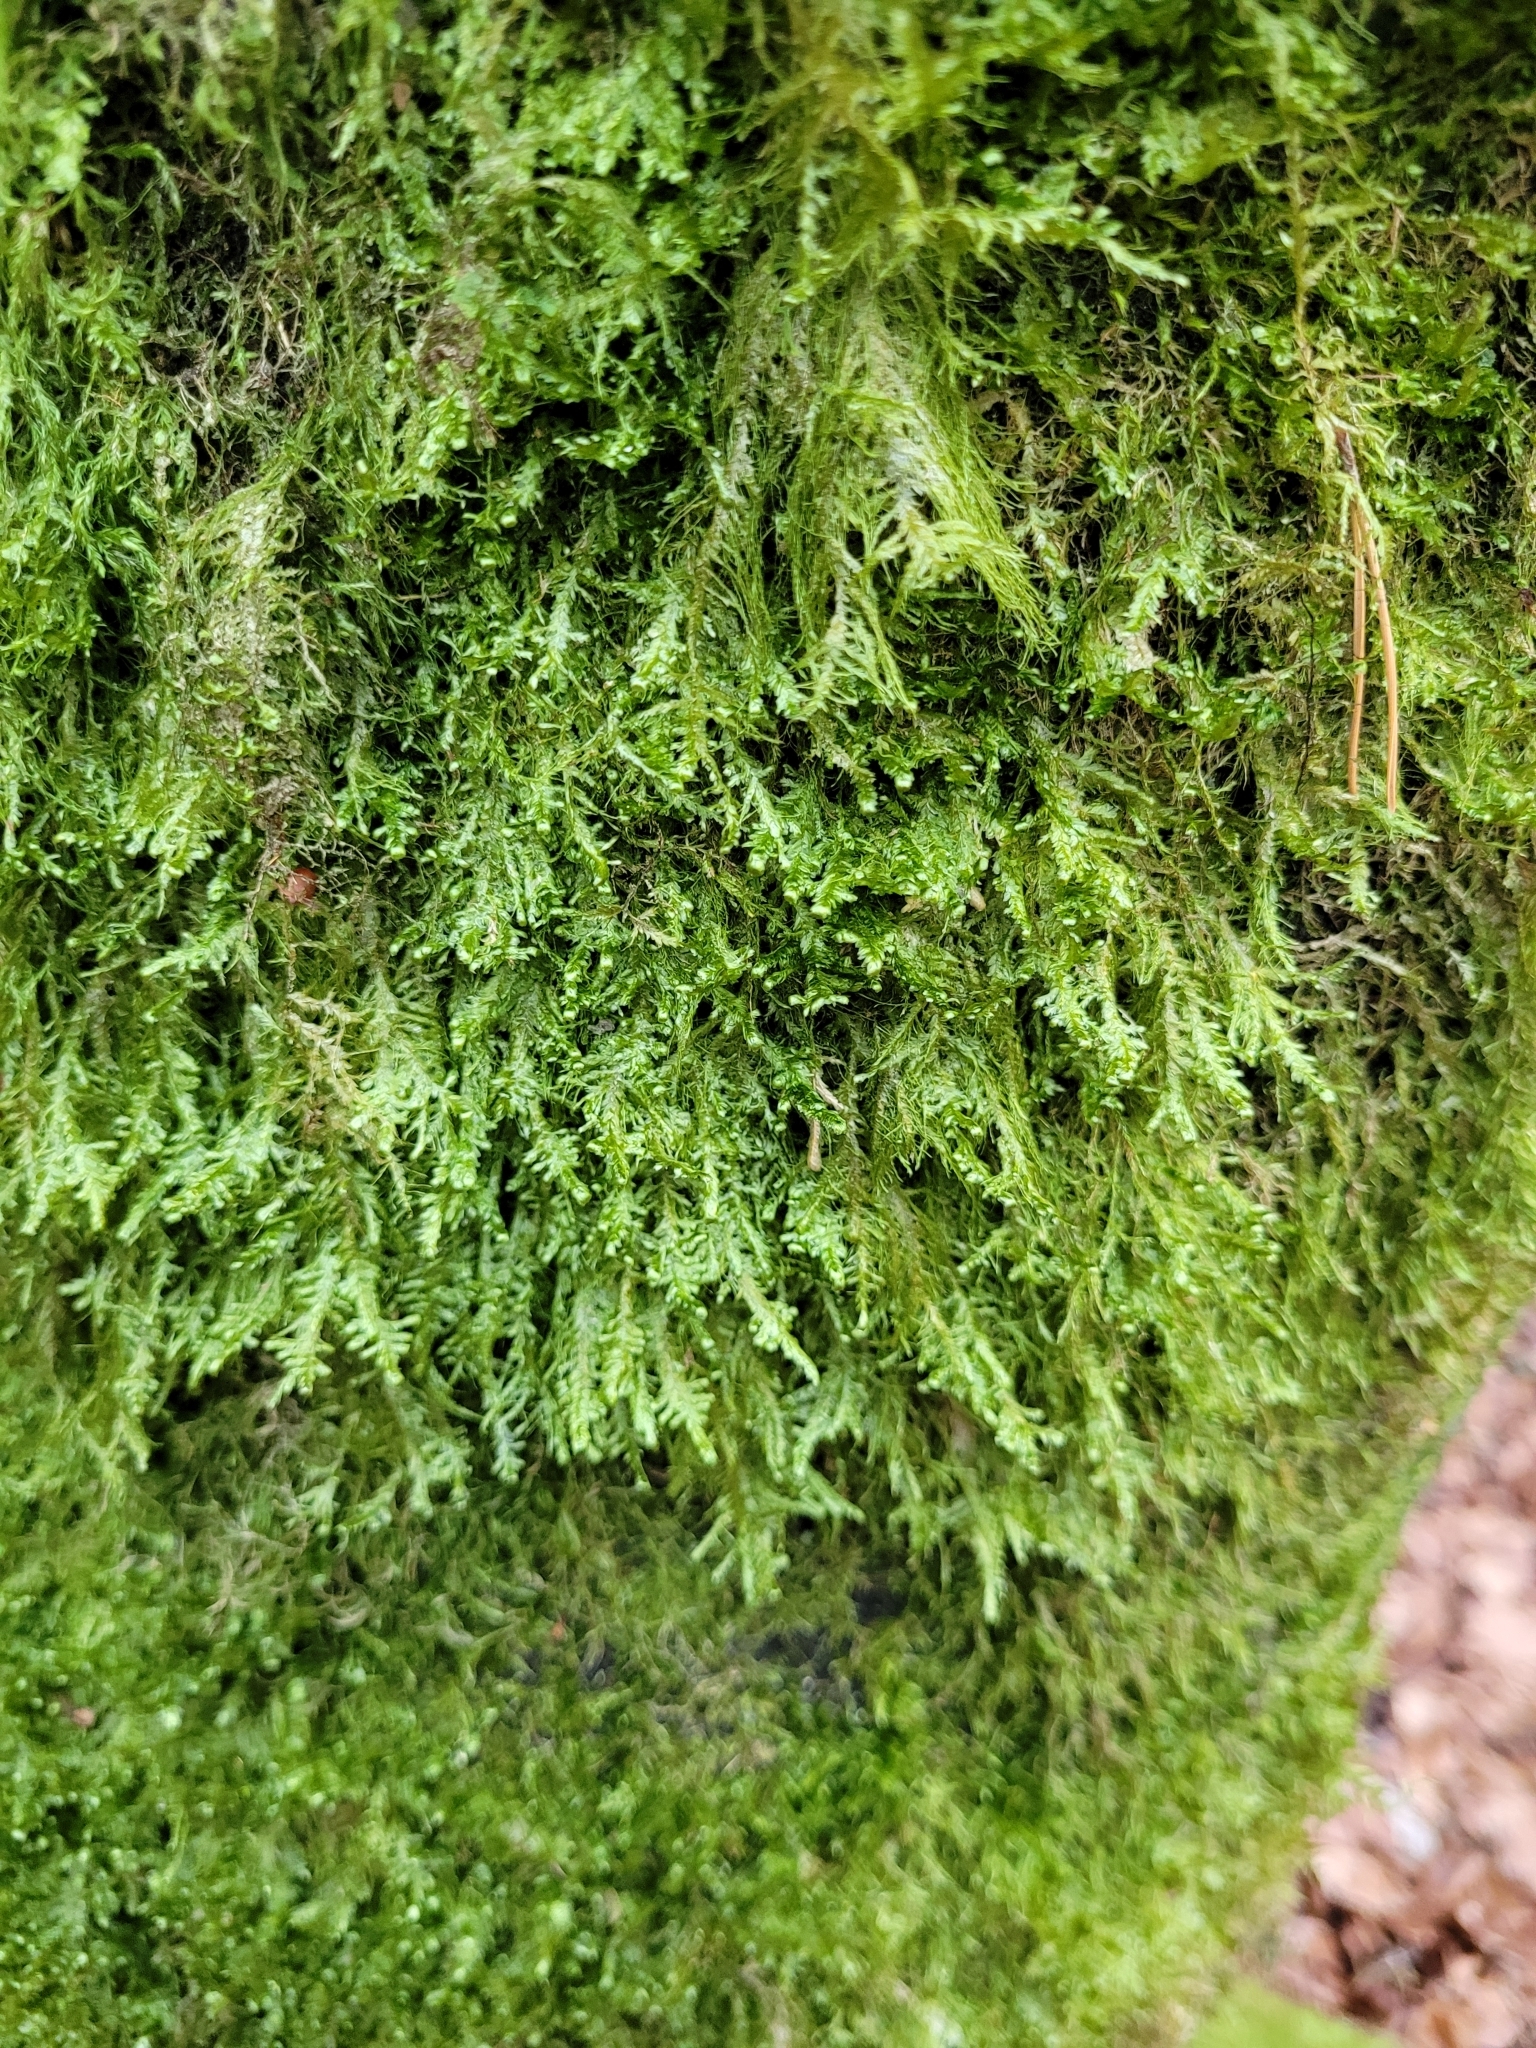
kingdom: Plantae
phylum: Bryophyta
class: Bryopsida
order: Hypnales
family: Neckeraceae
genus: Alleniella
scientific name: Alleniella complanata
